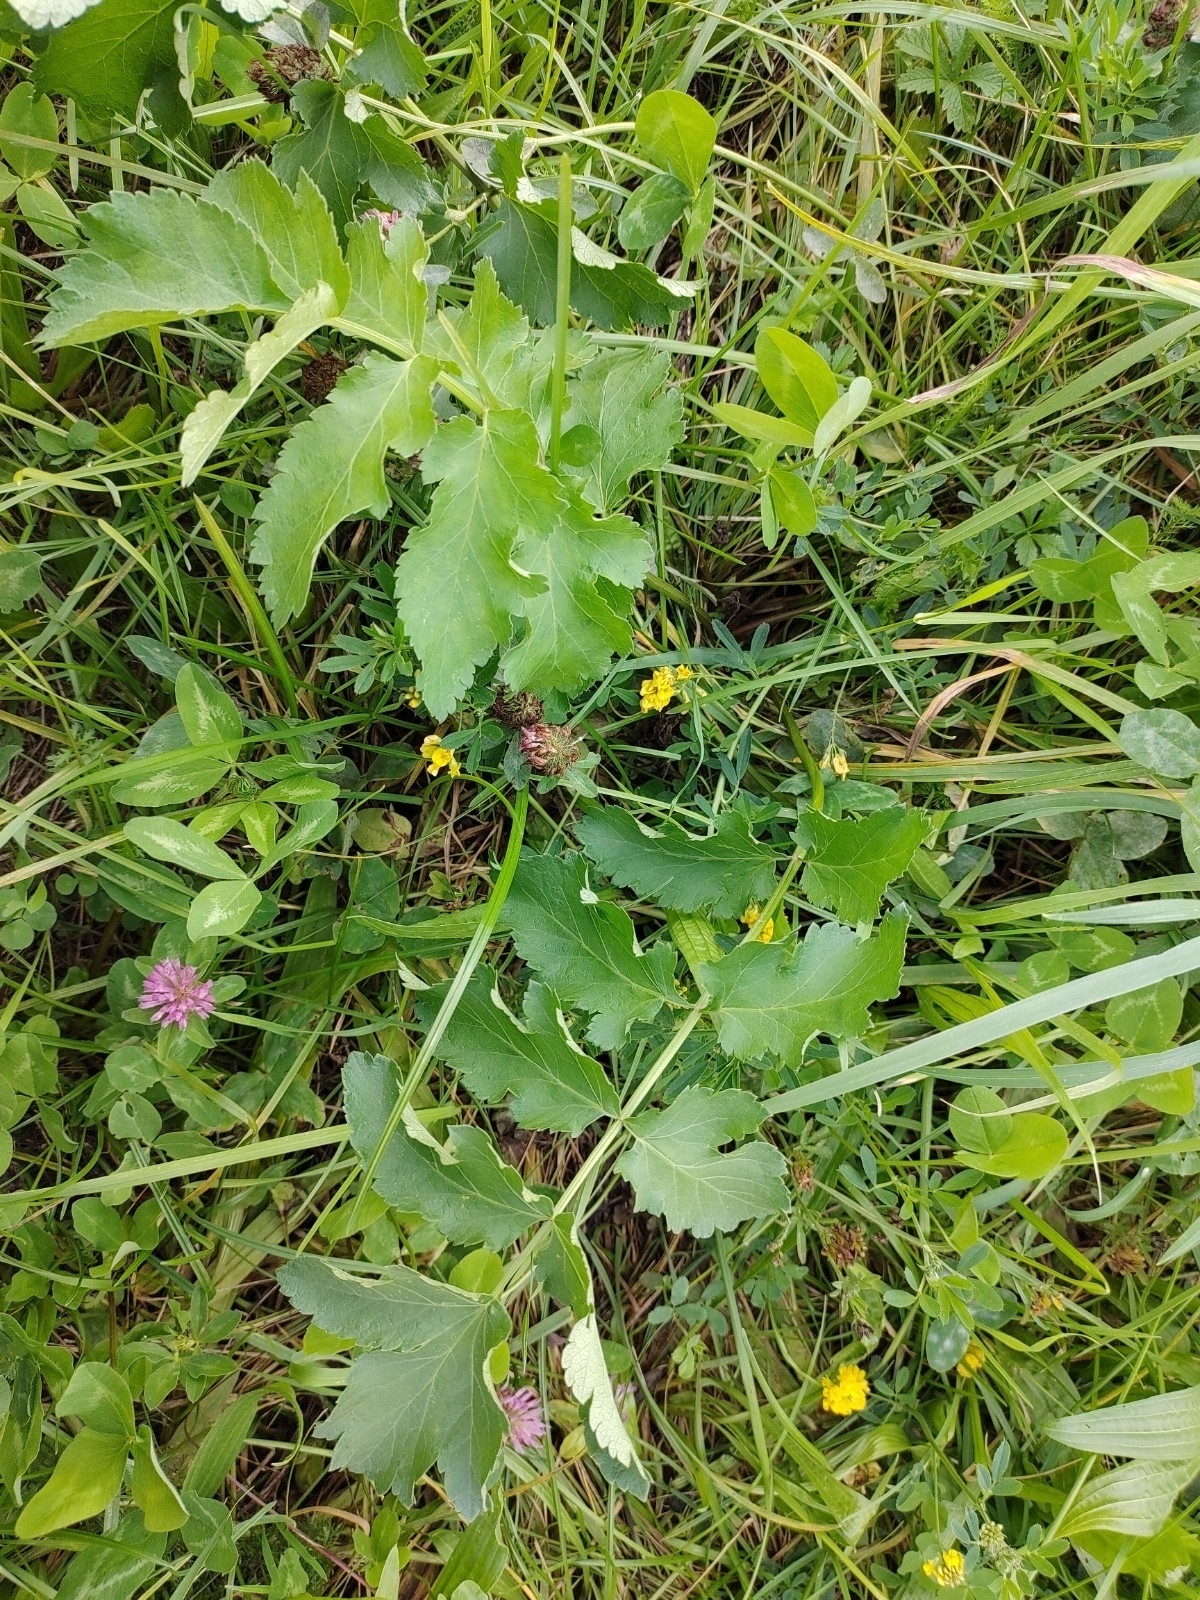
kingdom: Plantae
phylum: Tracheophyta
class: Magnoliopsida
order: Apiales
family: Apiaceae
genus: Pastinaca
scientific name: Pastinaca sativa
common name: Wild parsnip
